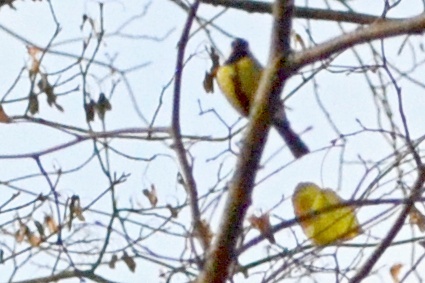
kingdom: Animalia
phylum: Chordata
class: Aves
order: Passeriformes
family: Paridae
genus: Parus
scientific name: Parus major
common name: Great tit
